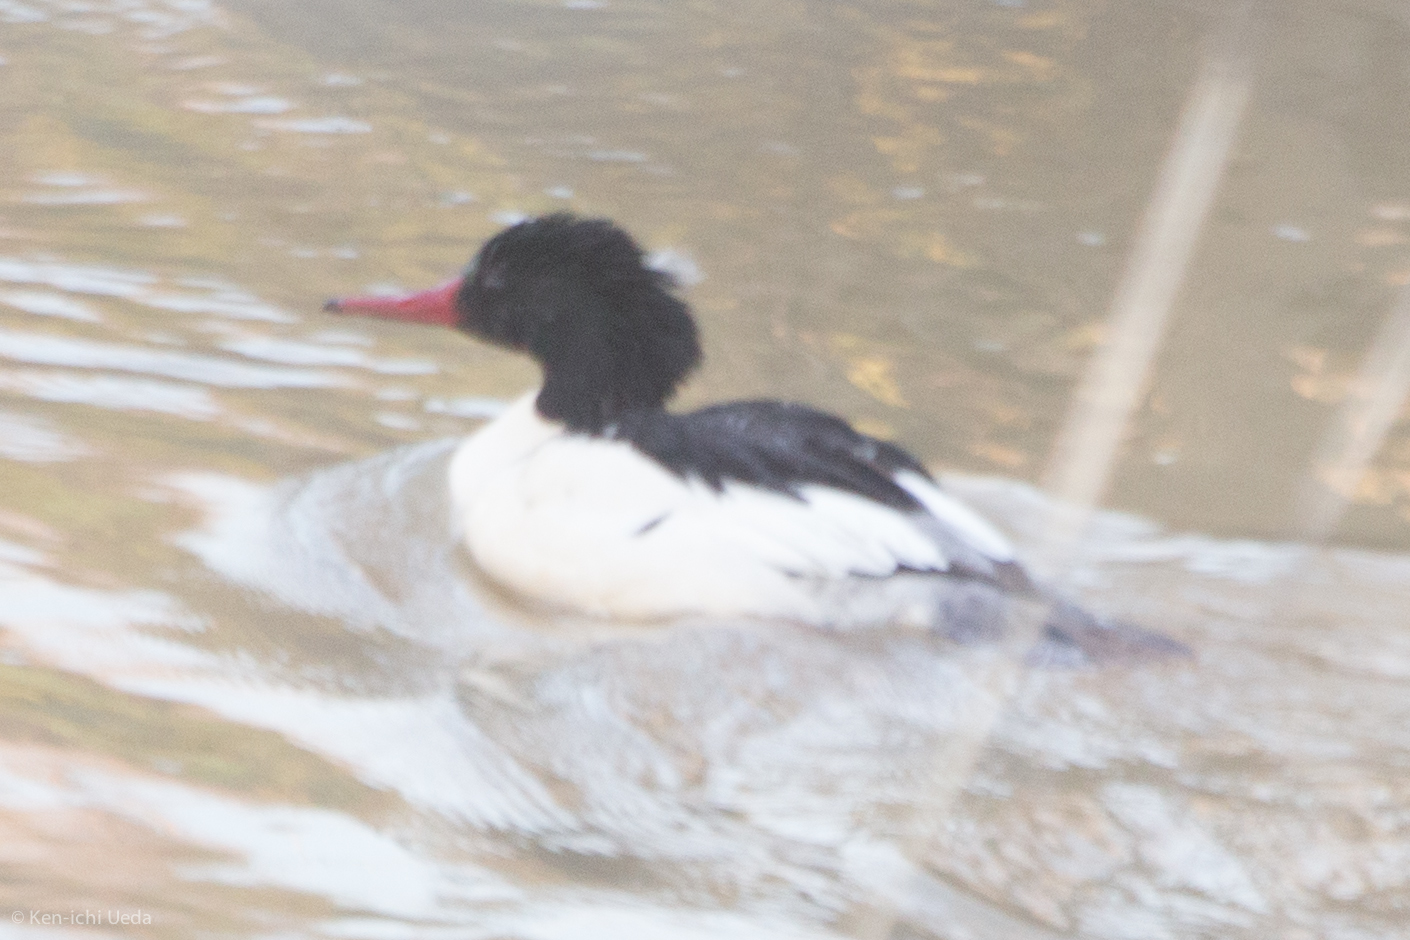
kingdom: Animalia
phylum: Chordata
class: Aves
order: Anseriformes
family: Anatidae
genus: Mergus
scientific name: Mergus merganser
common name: Common merganser
